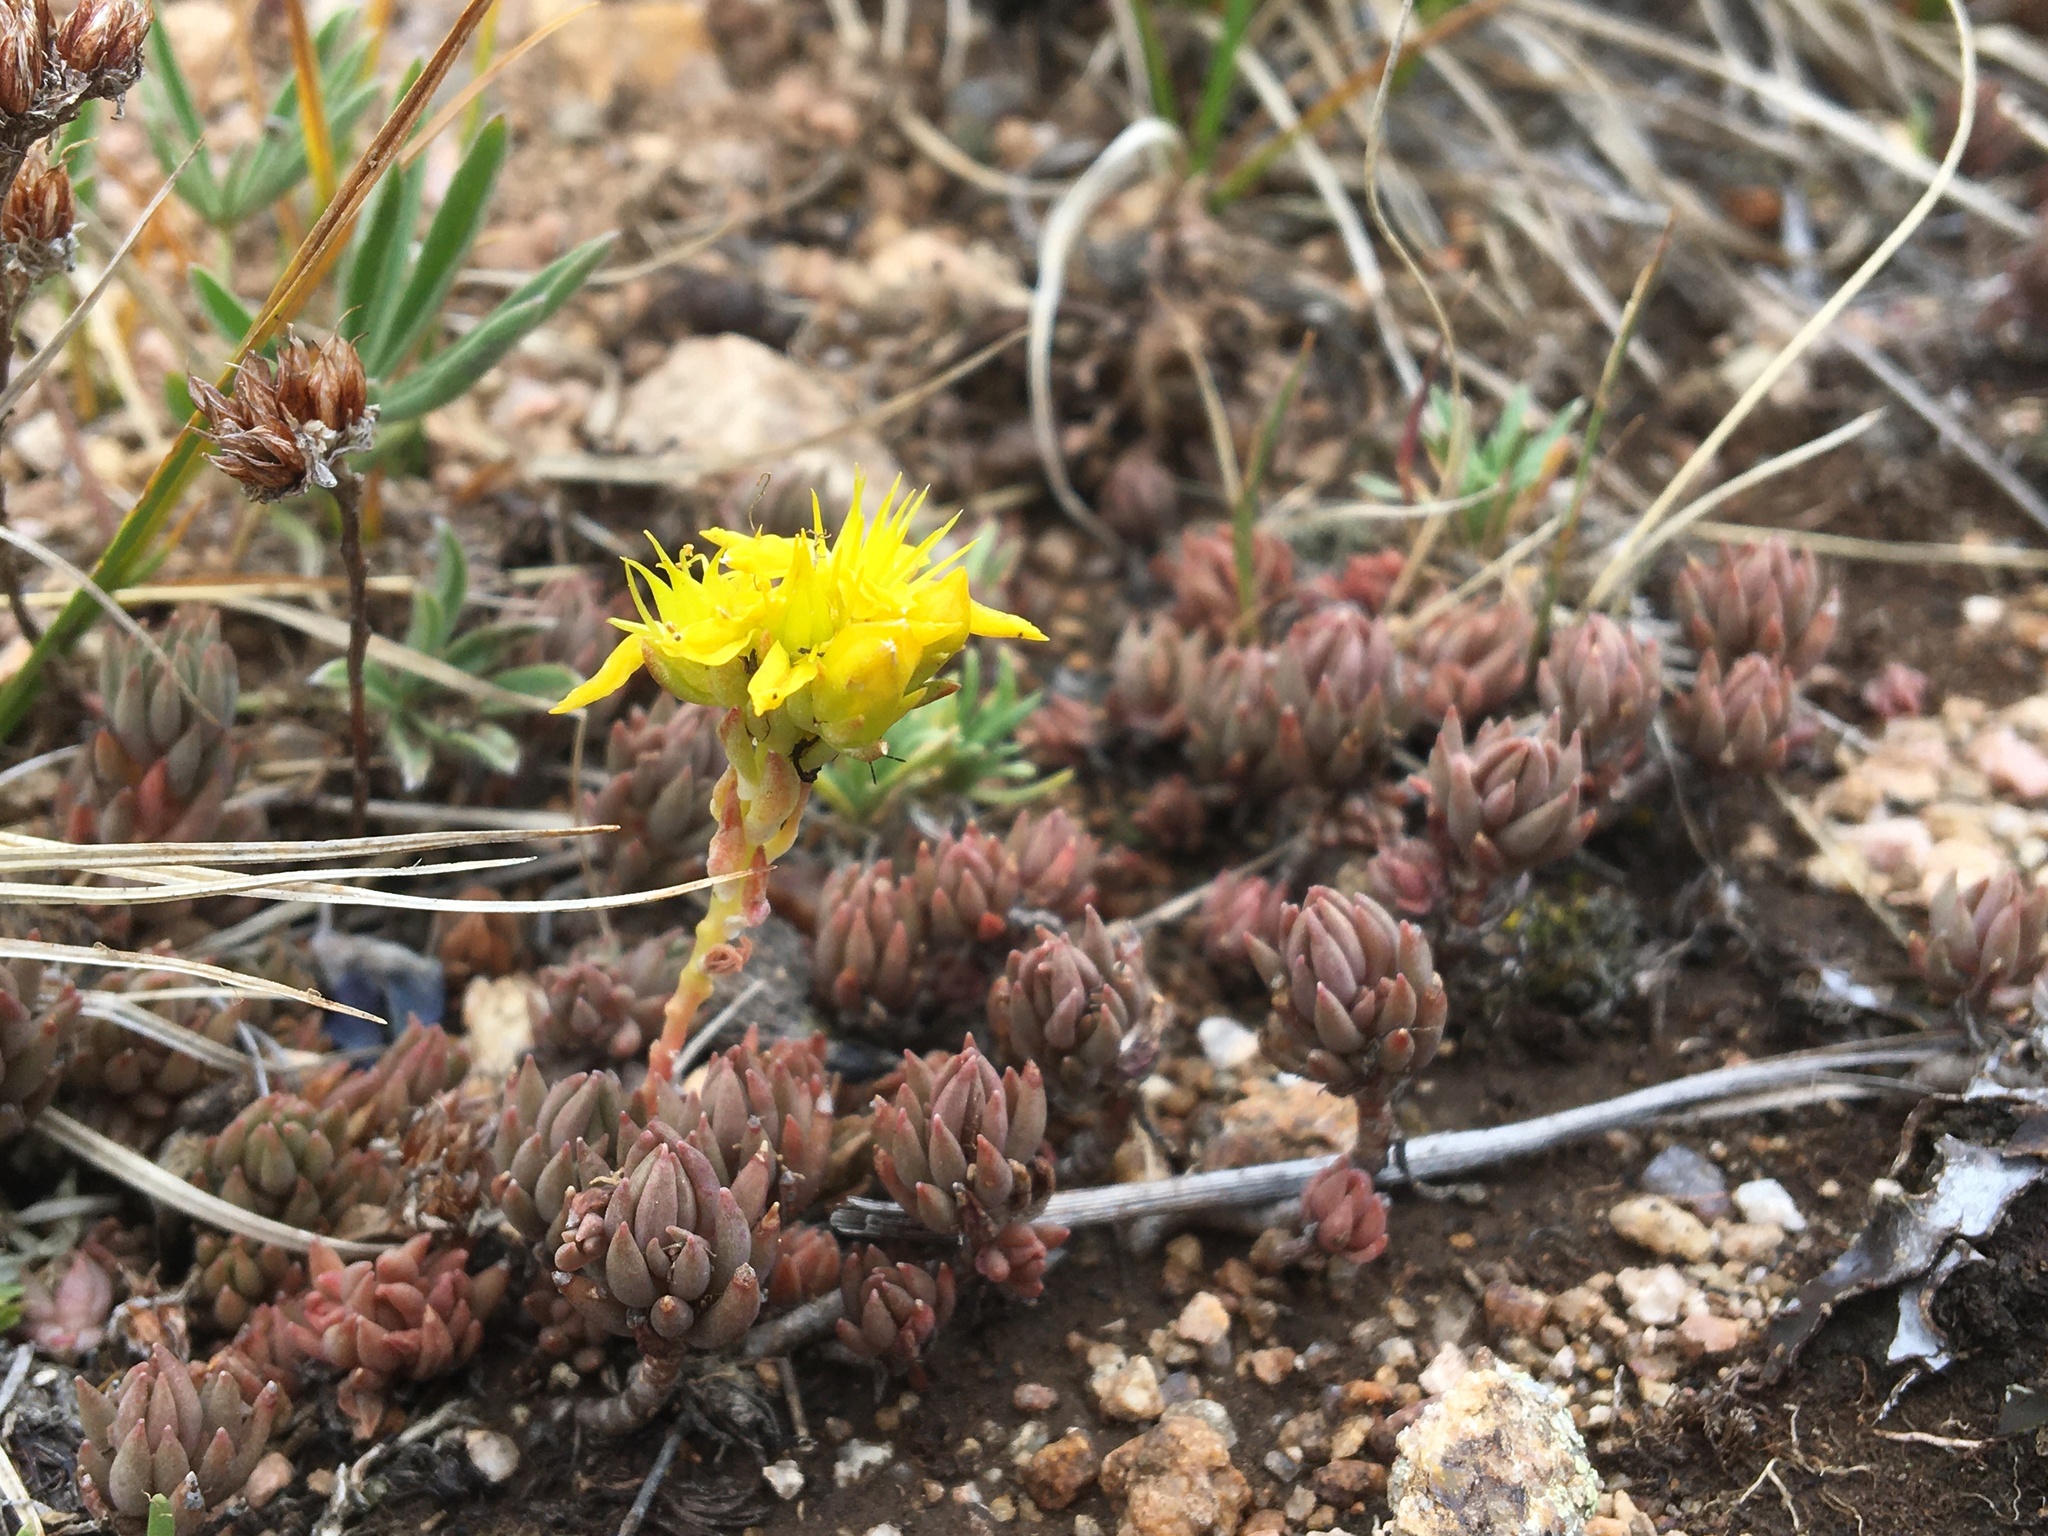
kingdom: Plantae
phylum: Tracheophyta
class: Magnoliopsida
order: Saxifragales
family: Crassulaceae
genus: Sedum
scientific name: Sedum lanceolatum
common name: Common stonecrop
